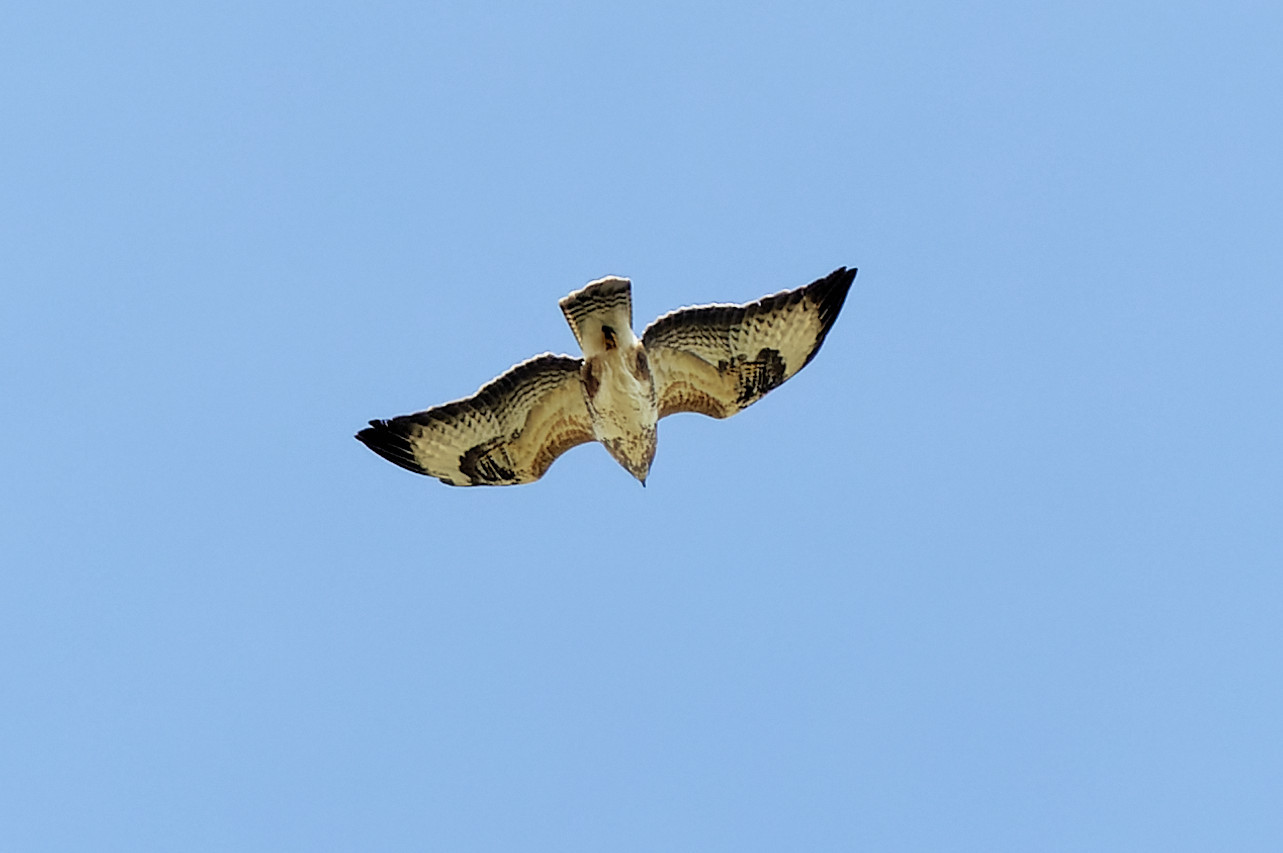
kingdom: Animalia
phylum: Chordata
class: Aves
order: Accipitriformes
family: Accipitridae
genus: Buteo
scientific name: Buteo buteo
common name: Common buzzard
